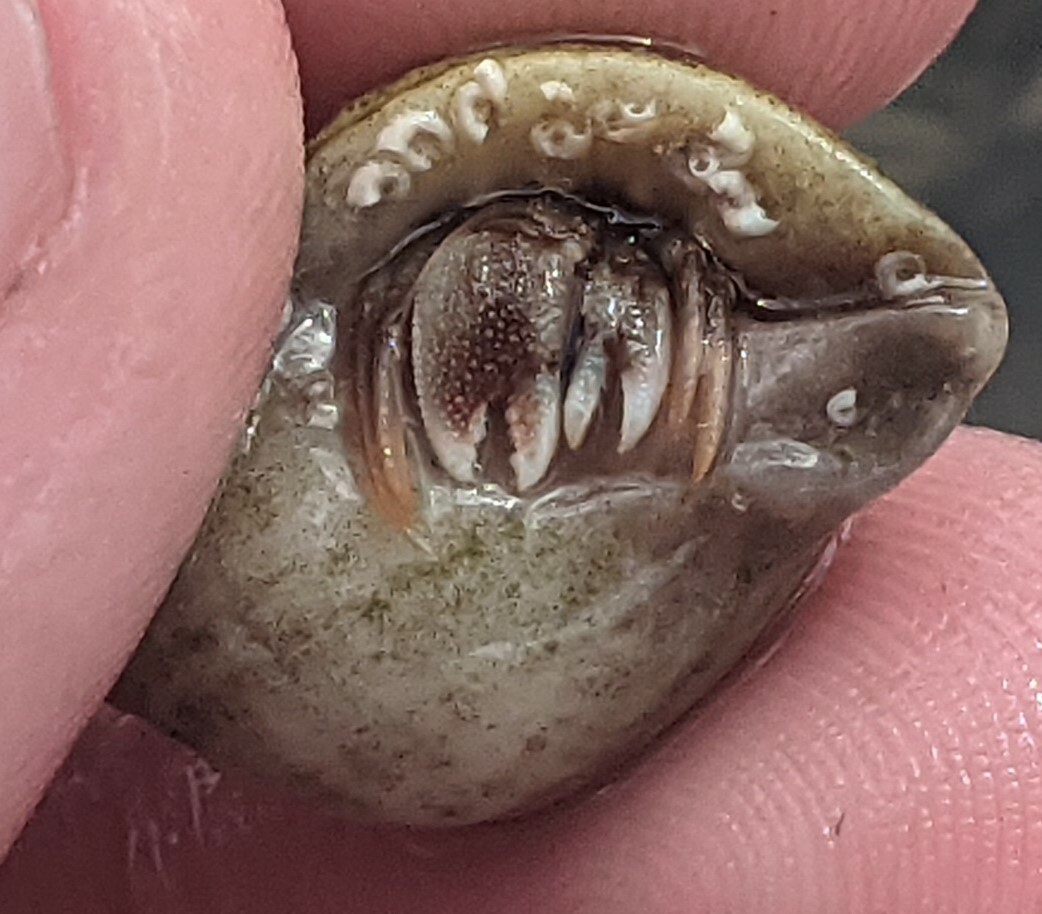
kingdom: Animalia
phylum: Arthropoda
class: Malacostraca
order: Decapoda
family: Paguridae
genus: Pagurus
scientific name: Pagurus bernhardus
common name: Hermit crab
